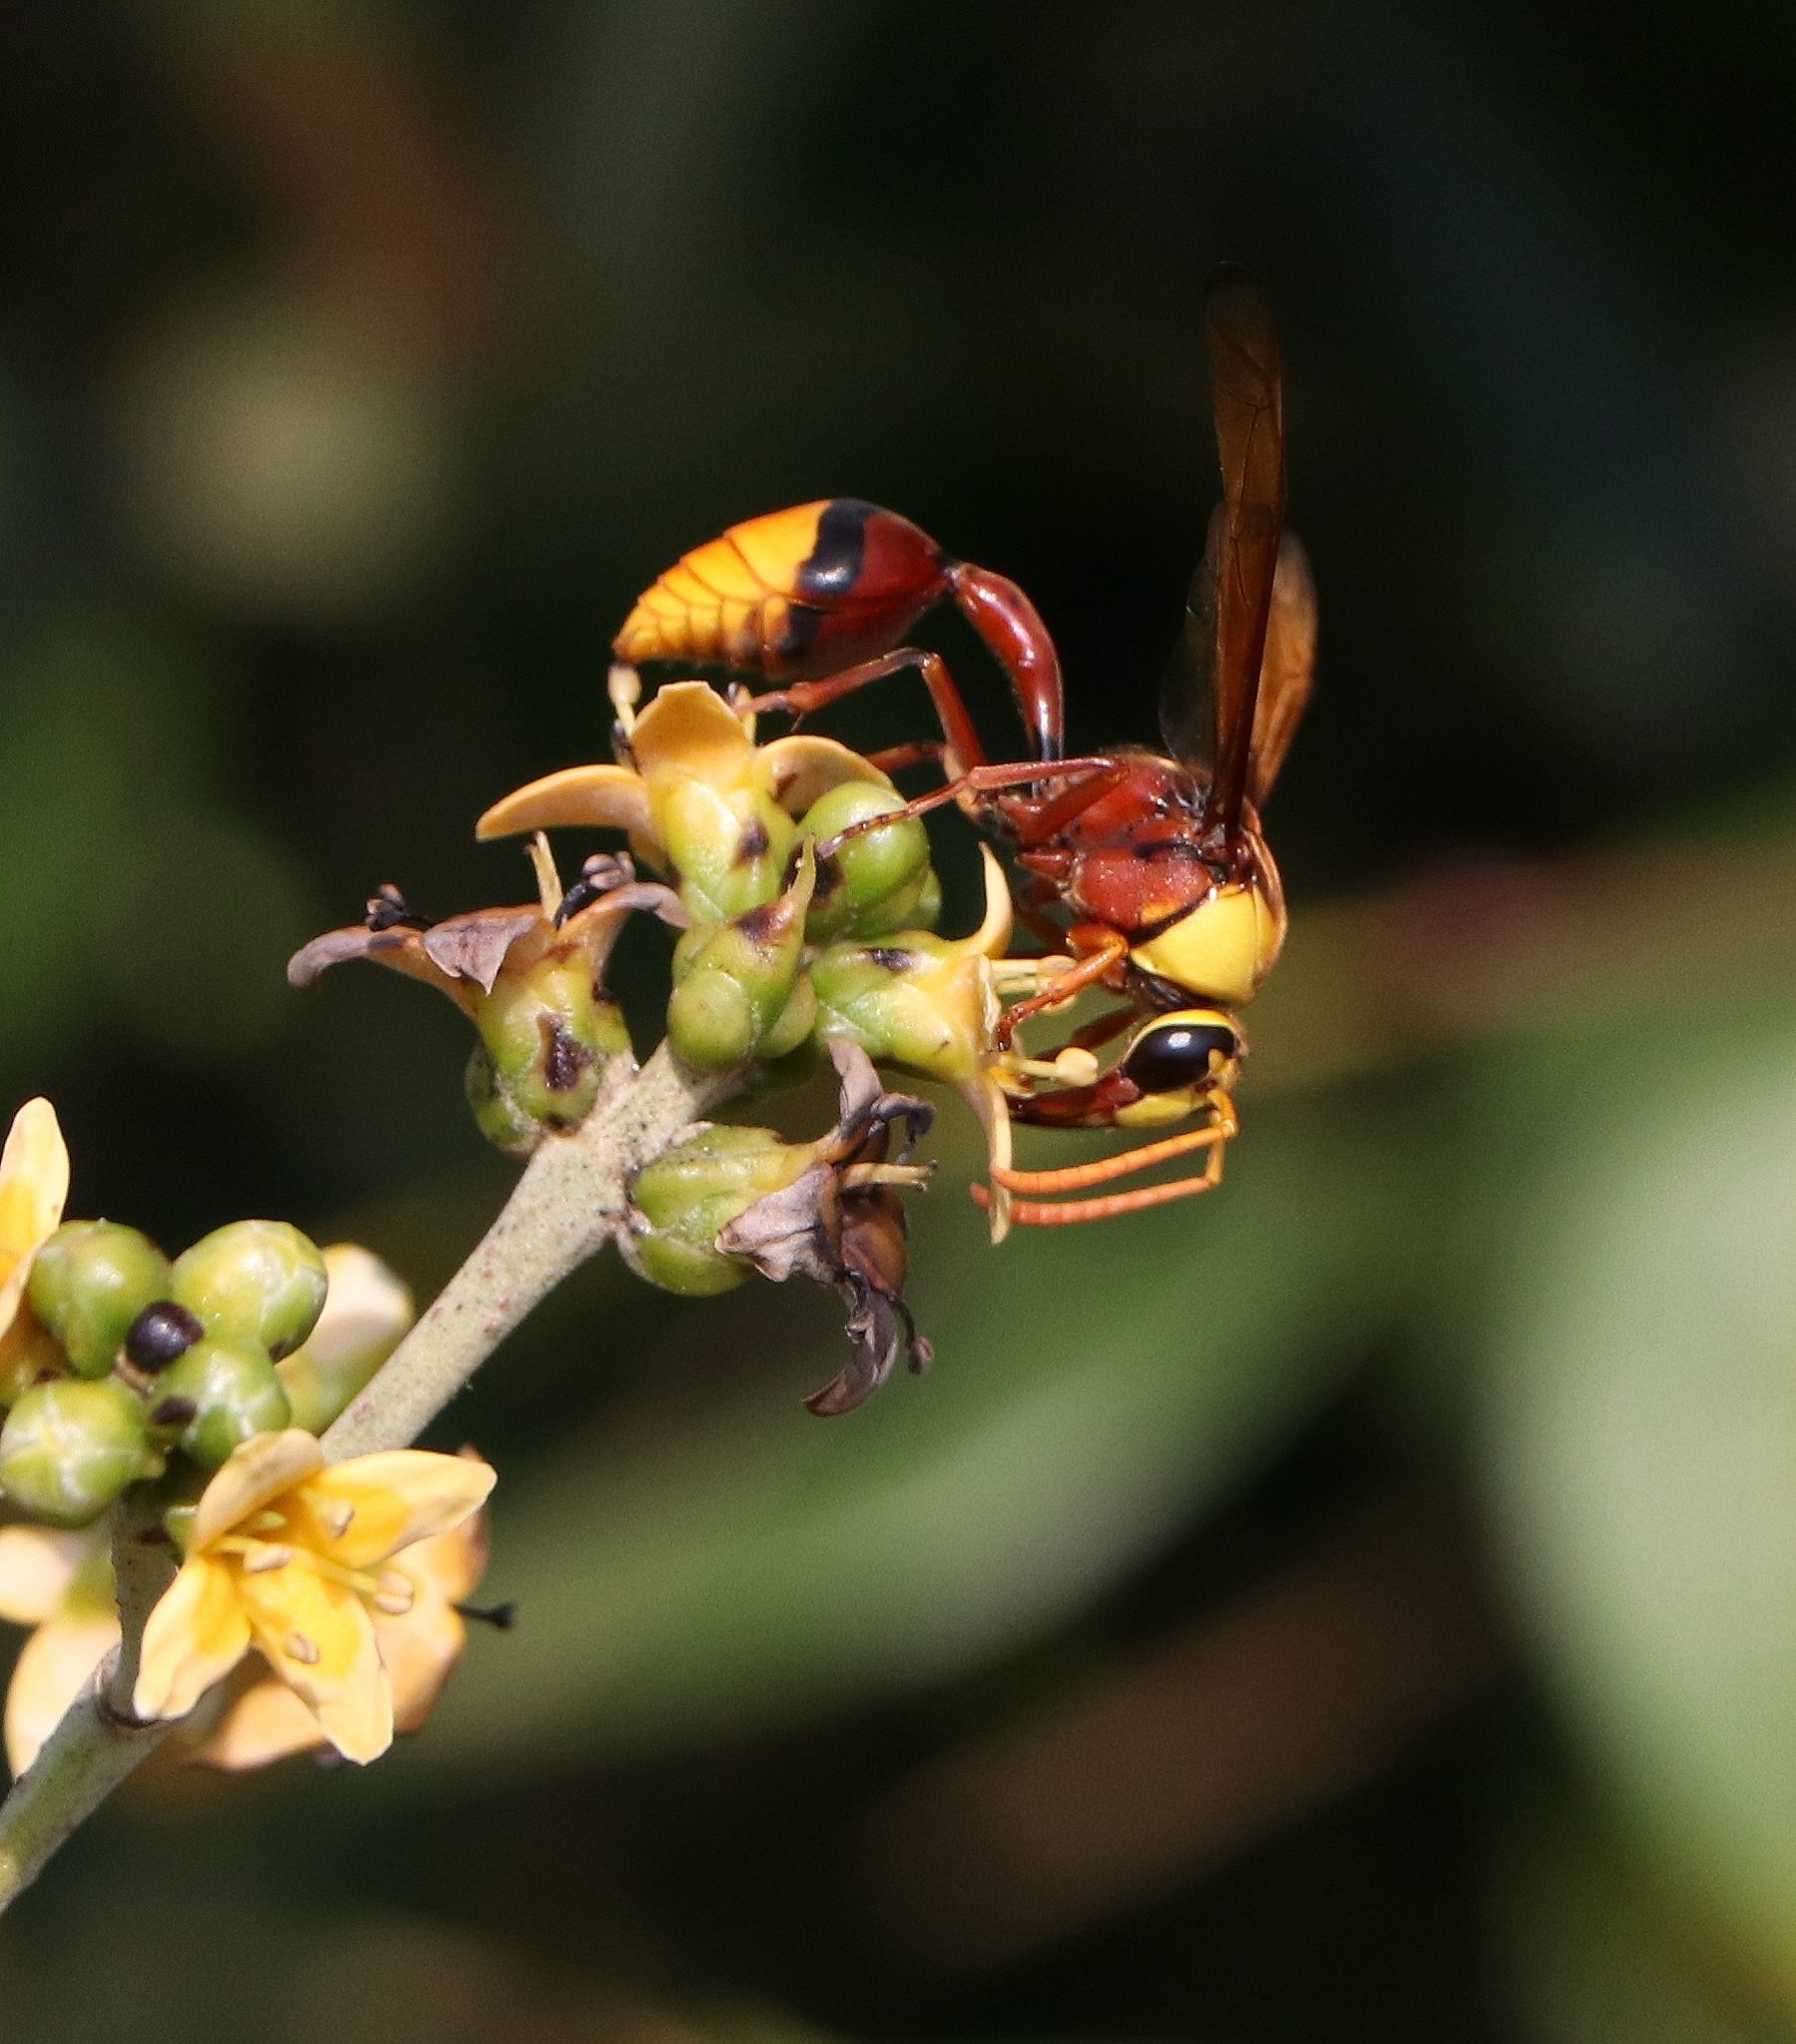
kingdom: Animalia
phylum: Arthropoda
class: Insecta
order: Hymenoptera
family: Eumenidae
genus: Delta
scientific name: Delta pyriforme
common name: Wasp
